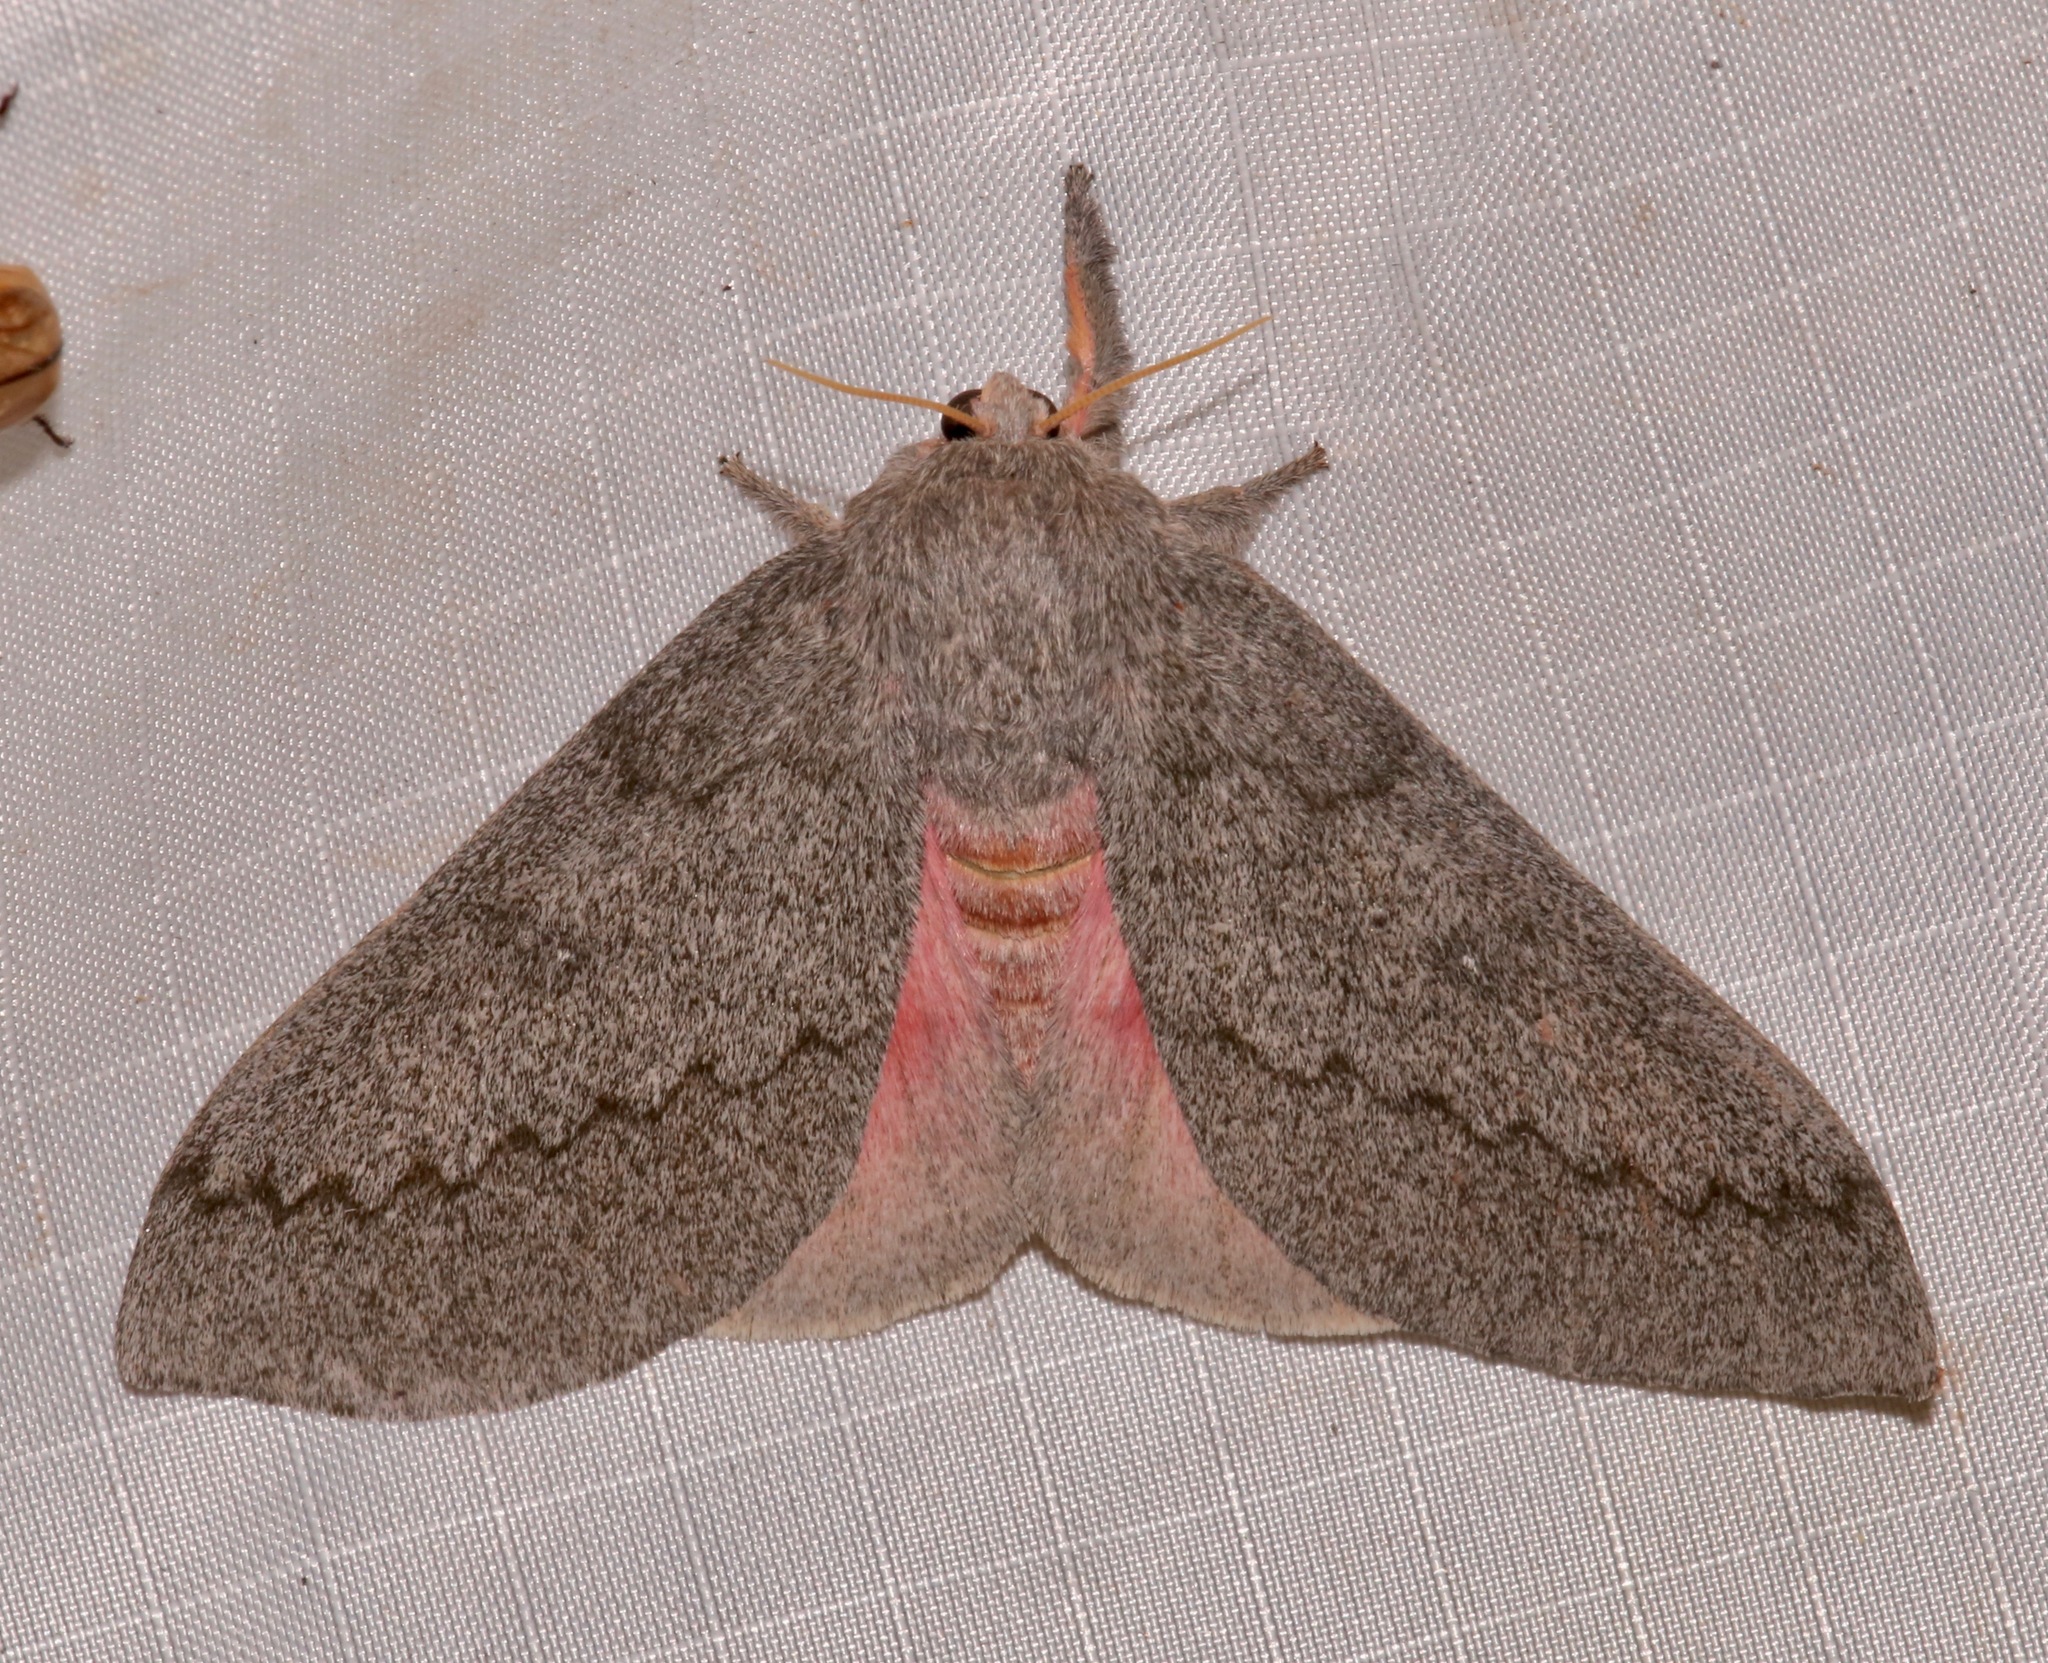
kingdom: Animalia
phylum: Arthropoda
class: Insecta
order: Lepidoptera
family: Saturniidae
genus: Syssphinx
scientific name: Syssphinx hubbardi
